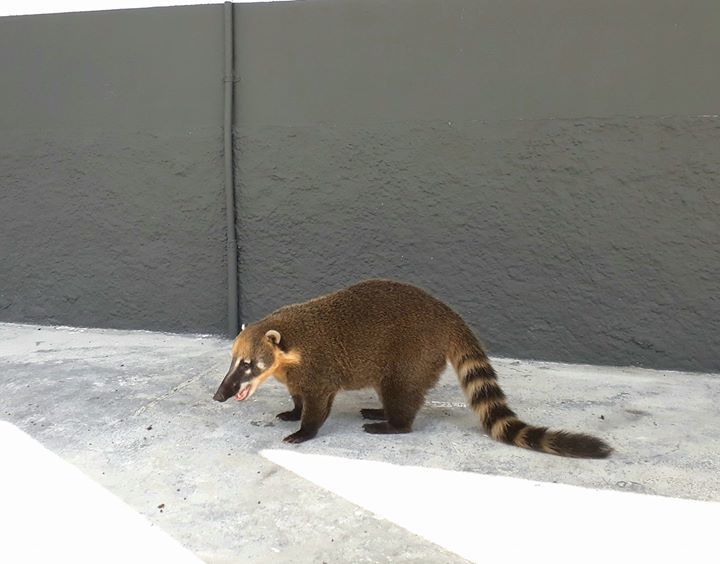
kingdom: Animalia
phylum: Chordata
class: Mammalia
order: Carnivora
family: Procyonidae
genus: Nasua
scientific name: Nasua nasua
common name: South american coati
